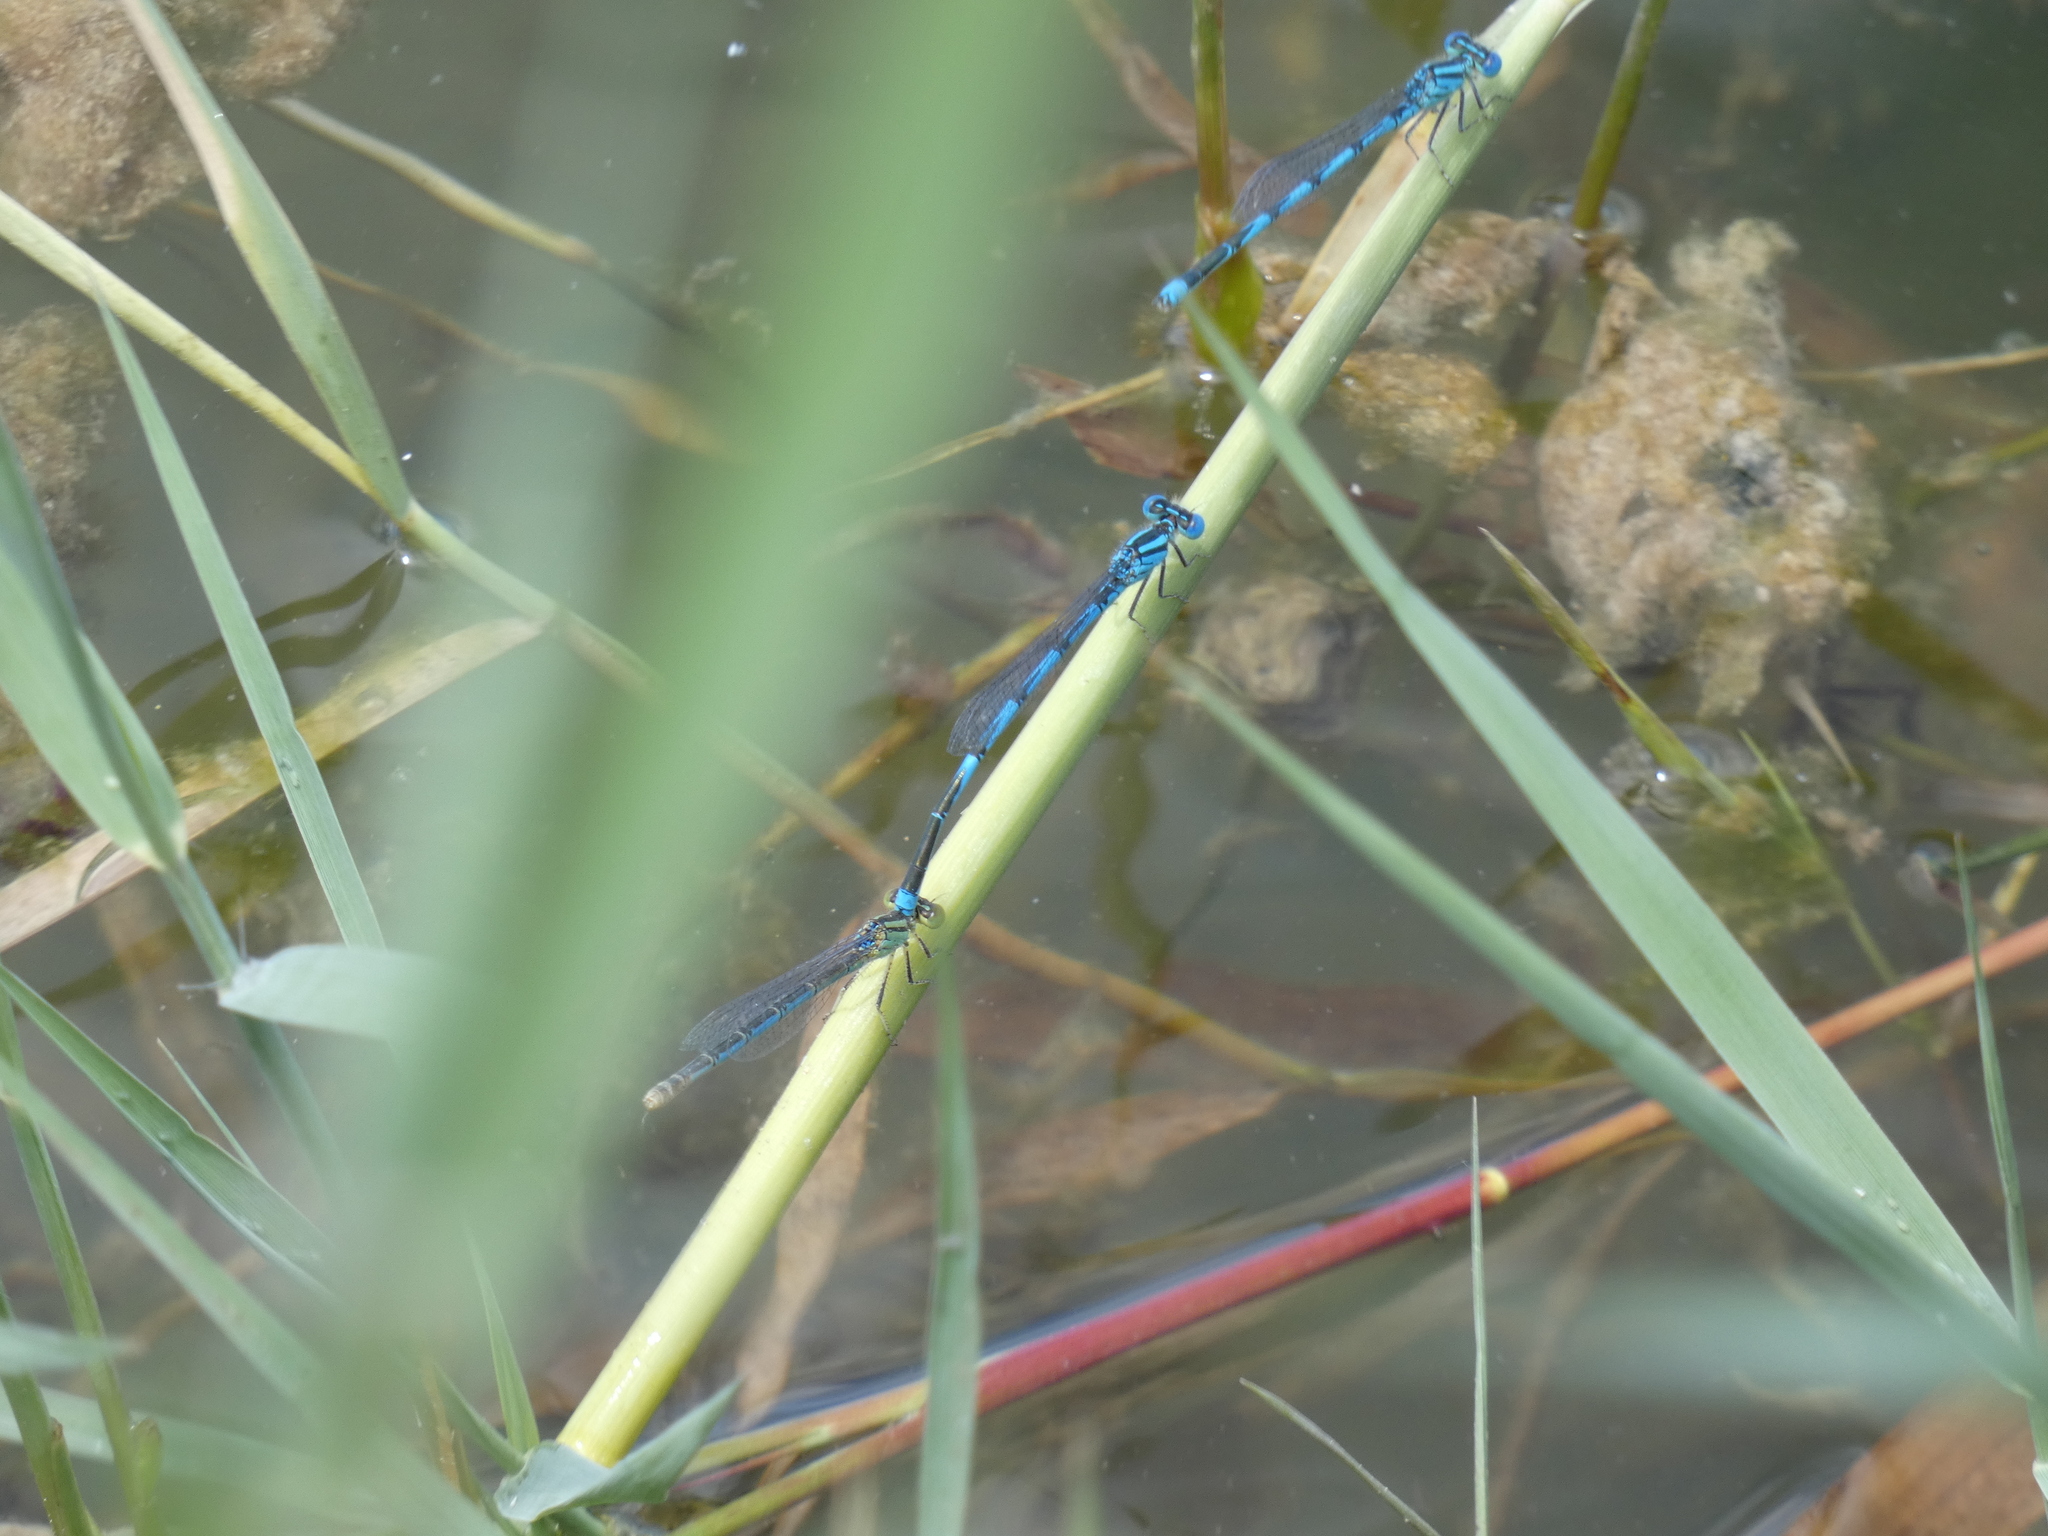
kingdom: Animalia
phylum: Arthropoda
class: Insecta
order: Odonata
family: Coenagrionidae
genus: Erythromma
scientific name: Erythromma lindenii
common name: Blue-eye
